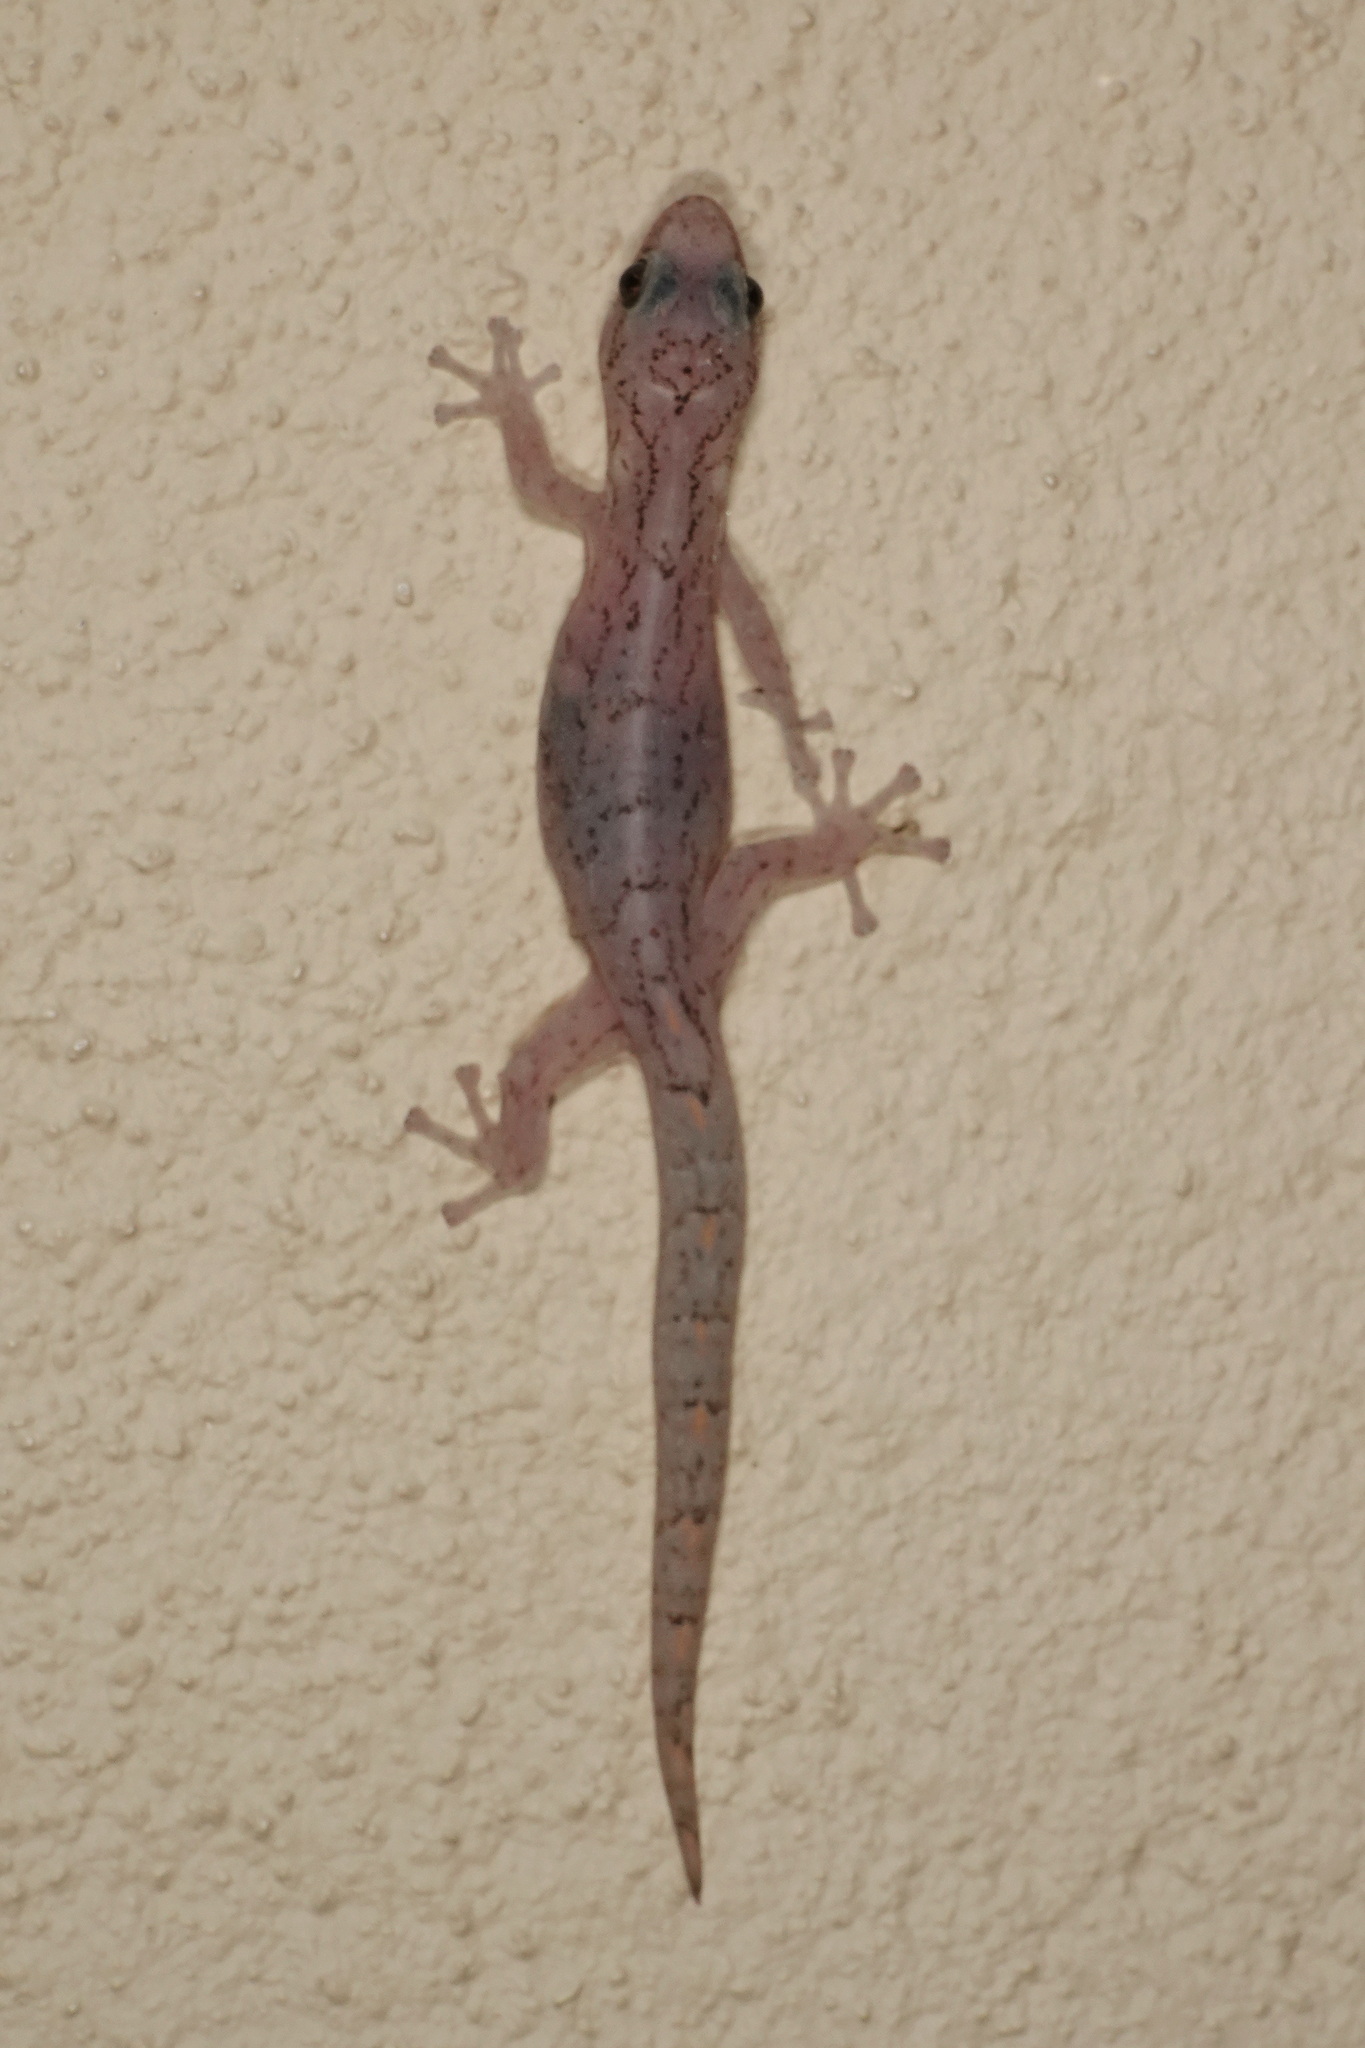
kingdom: Animalia
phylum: Chordata
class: Squamata
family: Gekkonidae
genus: Christinus
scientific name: Christinus marmoratus
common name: Marbled gecko
